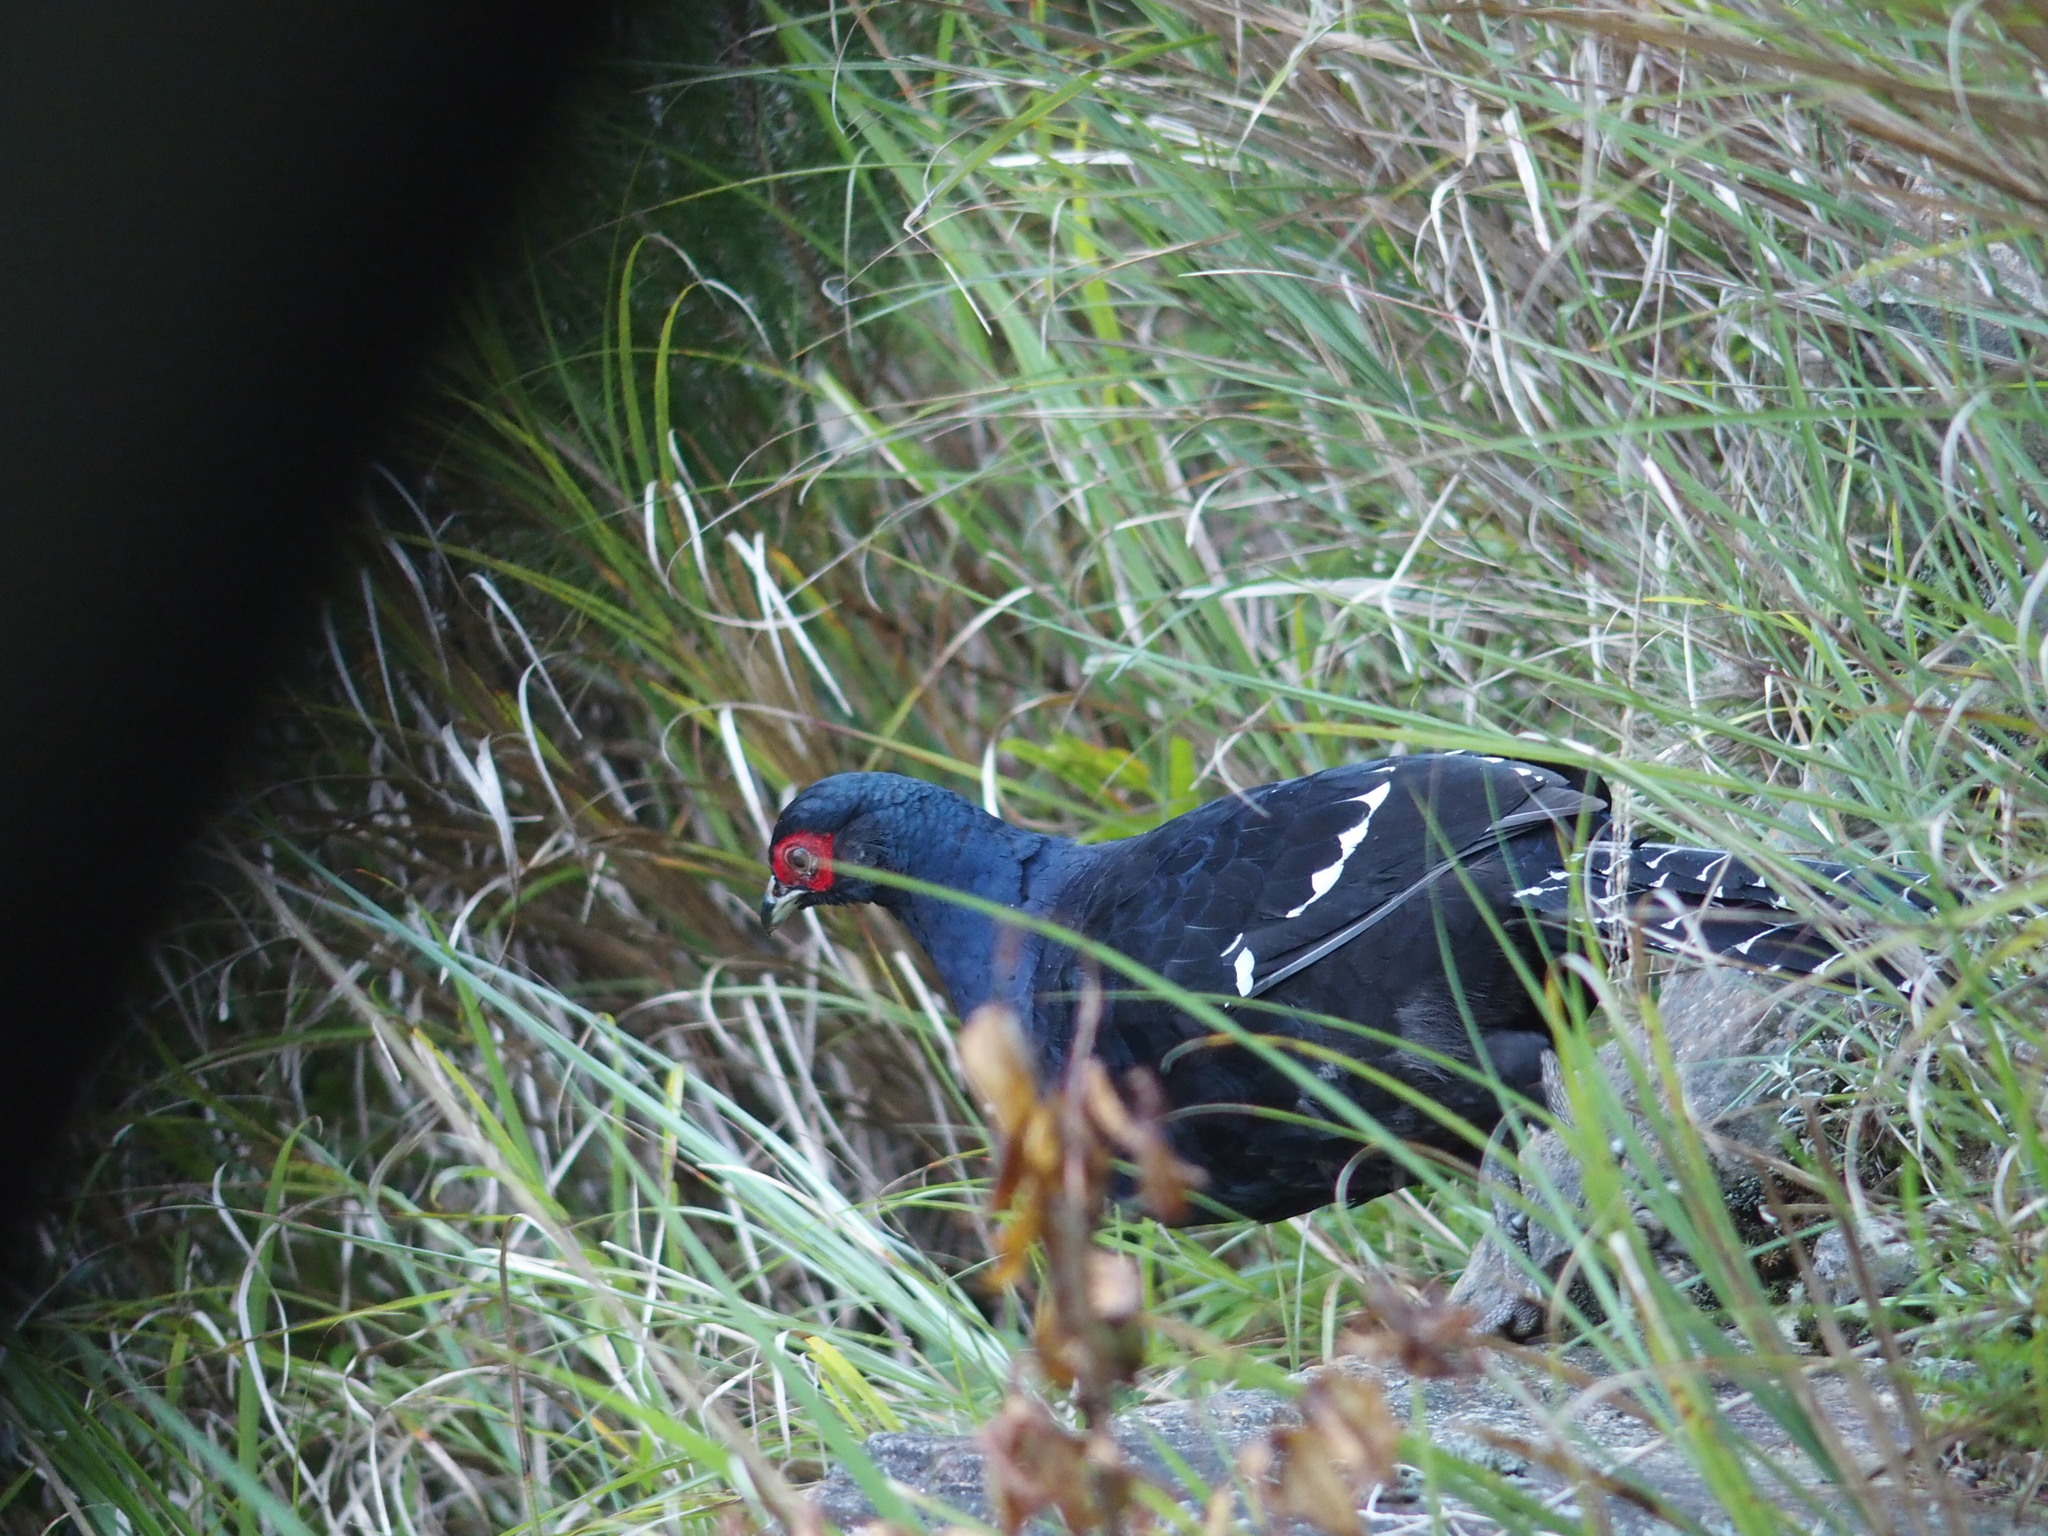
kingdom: Animalia
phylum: Chordata
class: Aves
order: Galliformes
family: Phasianidae
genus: Syrmaticus
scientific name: Syrmaticus mikado
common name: Mikado pheasant
